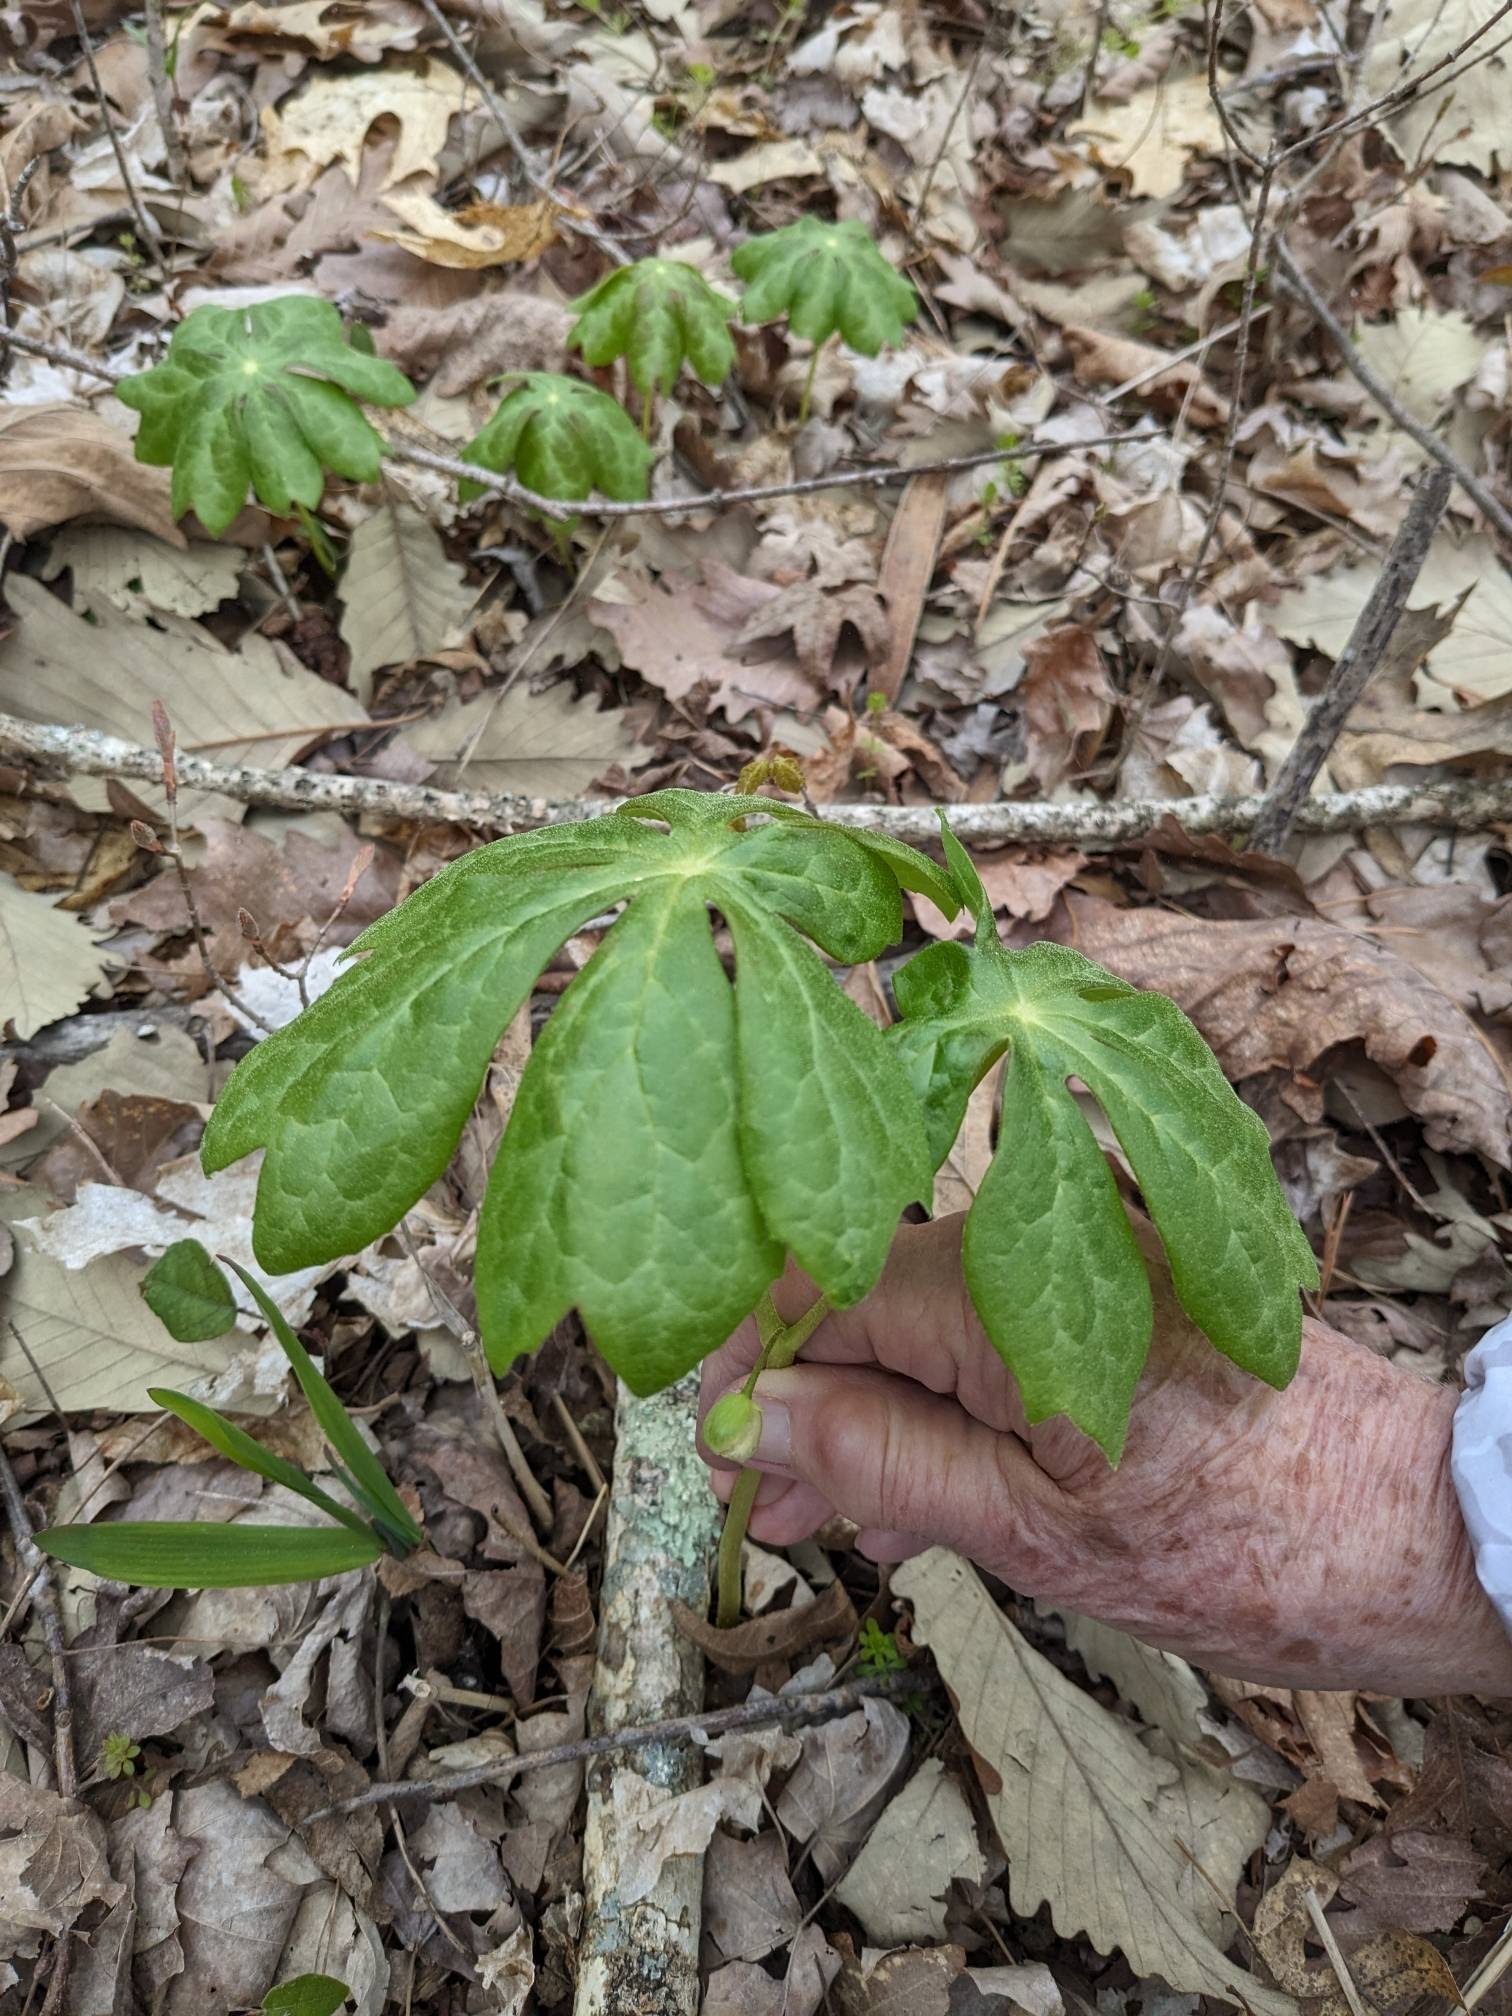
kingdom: Plantae
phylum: Tracheophyta
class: Magnoliopsida
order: Ranunculales
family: Berberidaceae
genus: Podophyllum
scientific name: Podophyllum peltatum
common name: Wild mandrake
